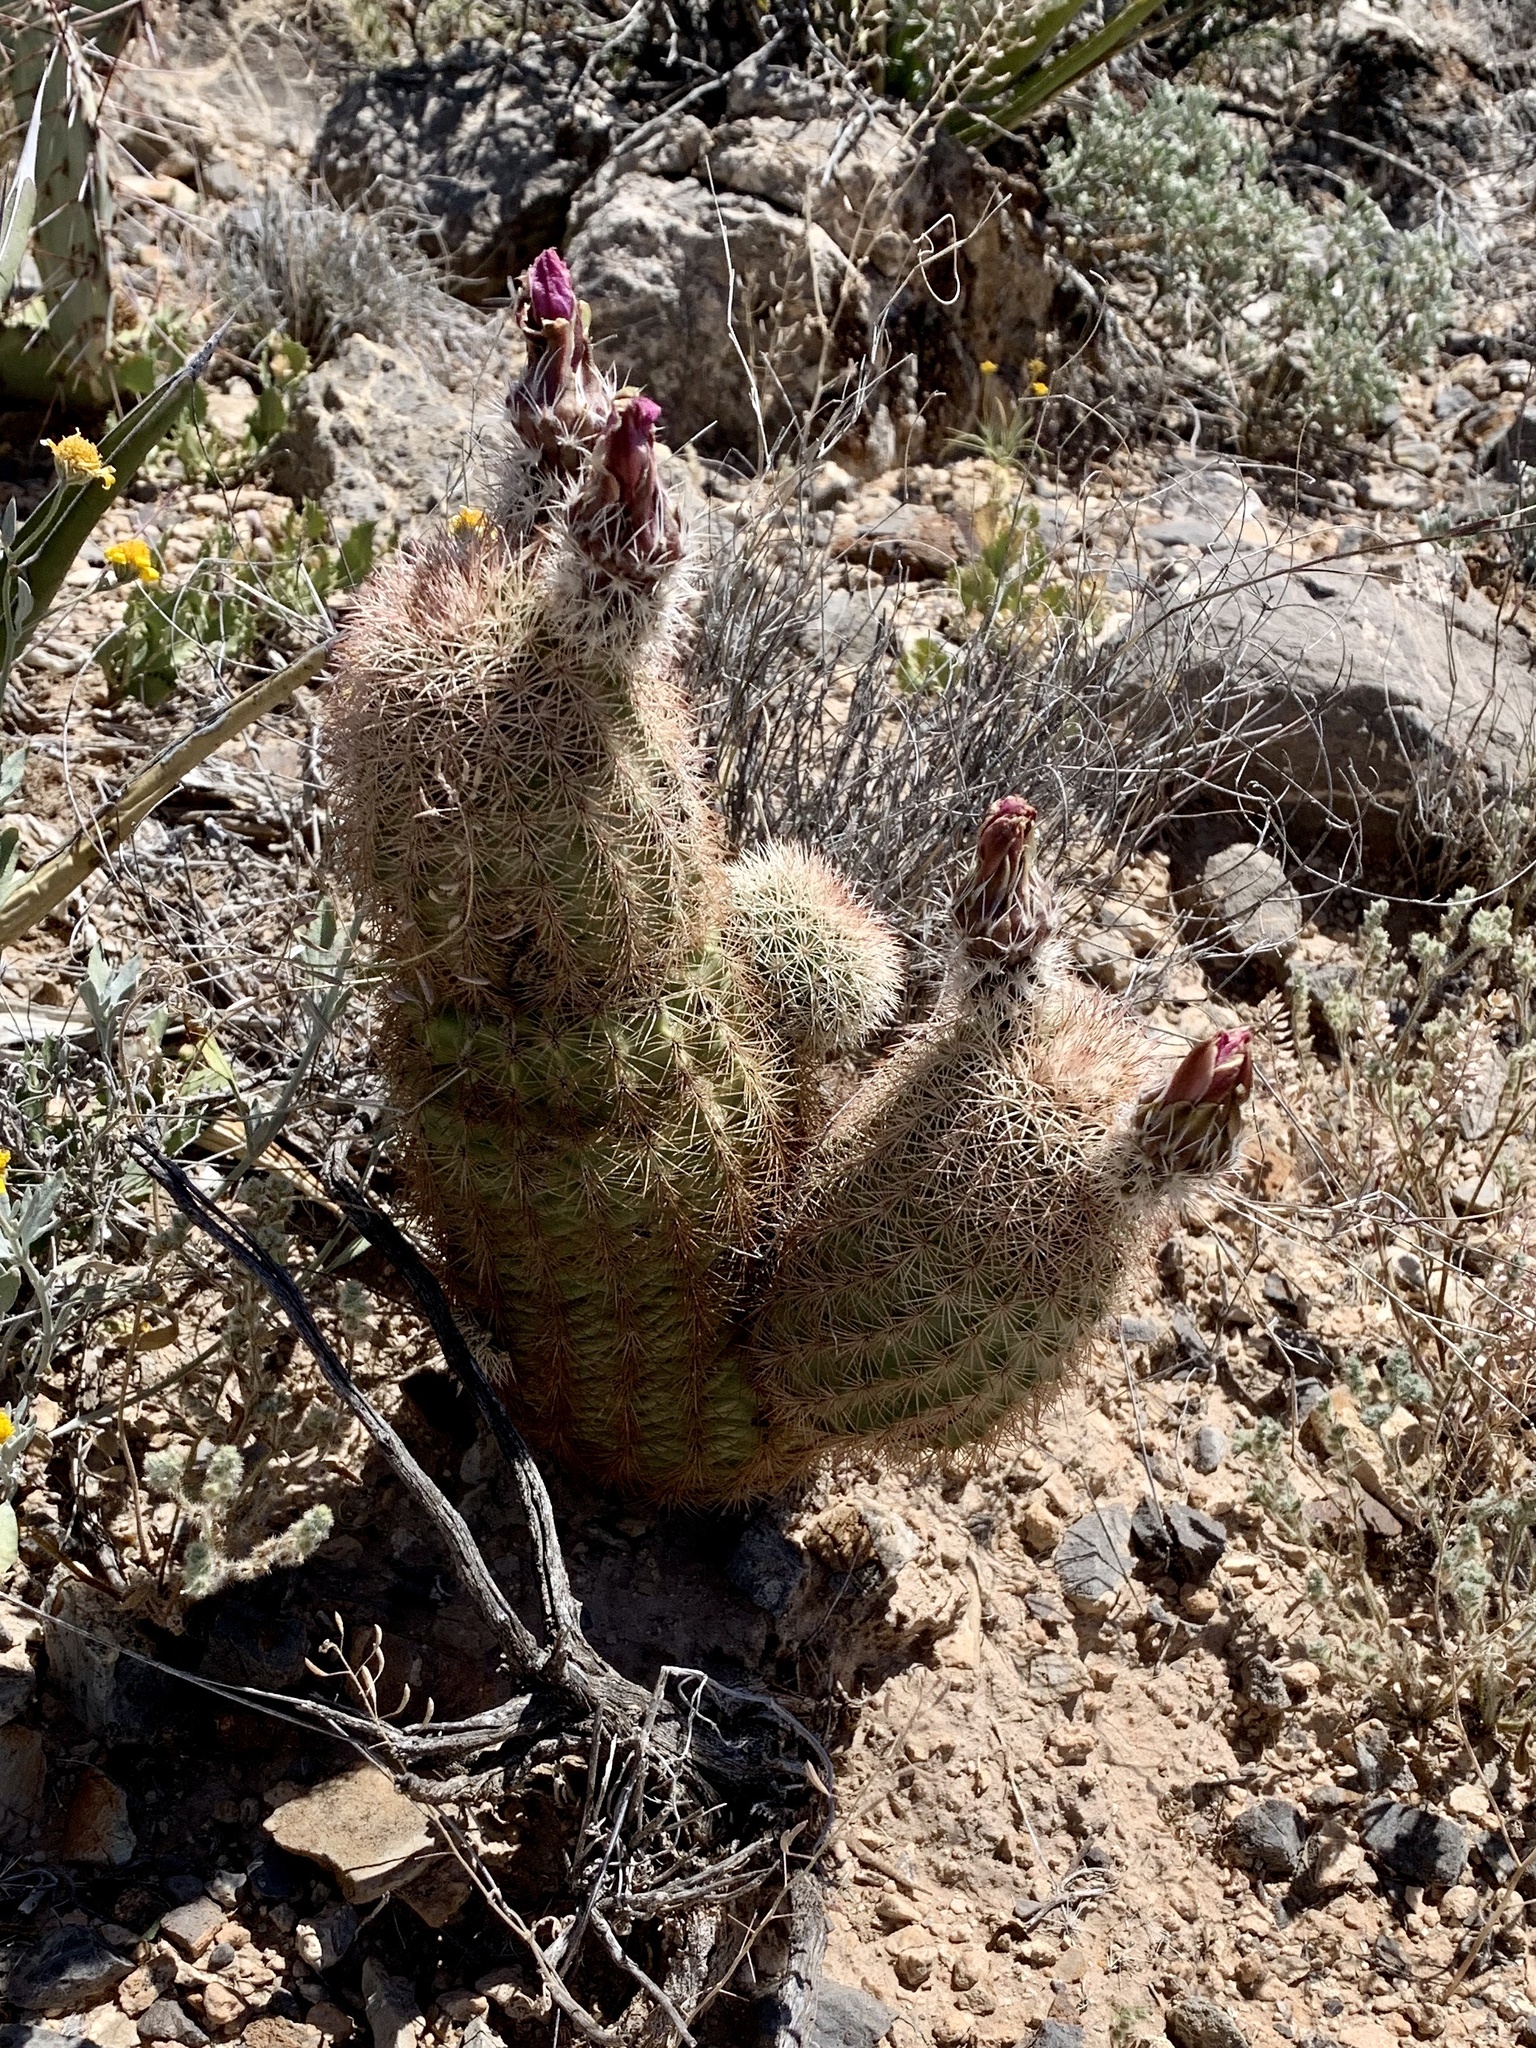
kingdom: Plantae
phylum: Tracheophyta
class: Magnoliopsida
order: Caryophyllales
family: Cactaceae
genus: Echinocereus
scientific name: Echinocereus dasyacanthus
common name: Spiny hedgehog cactus
